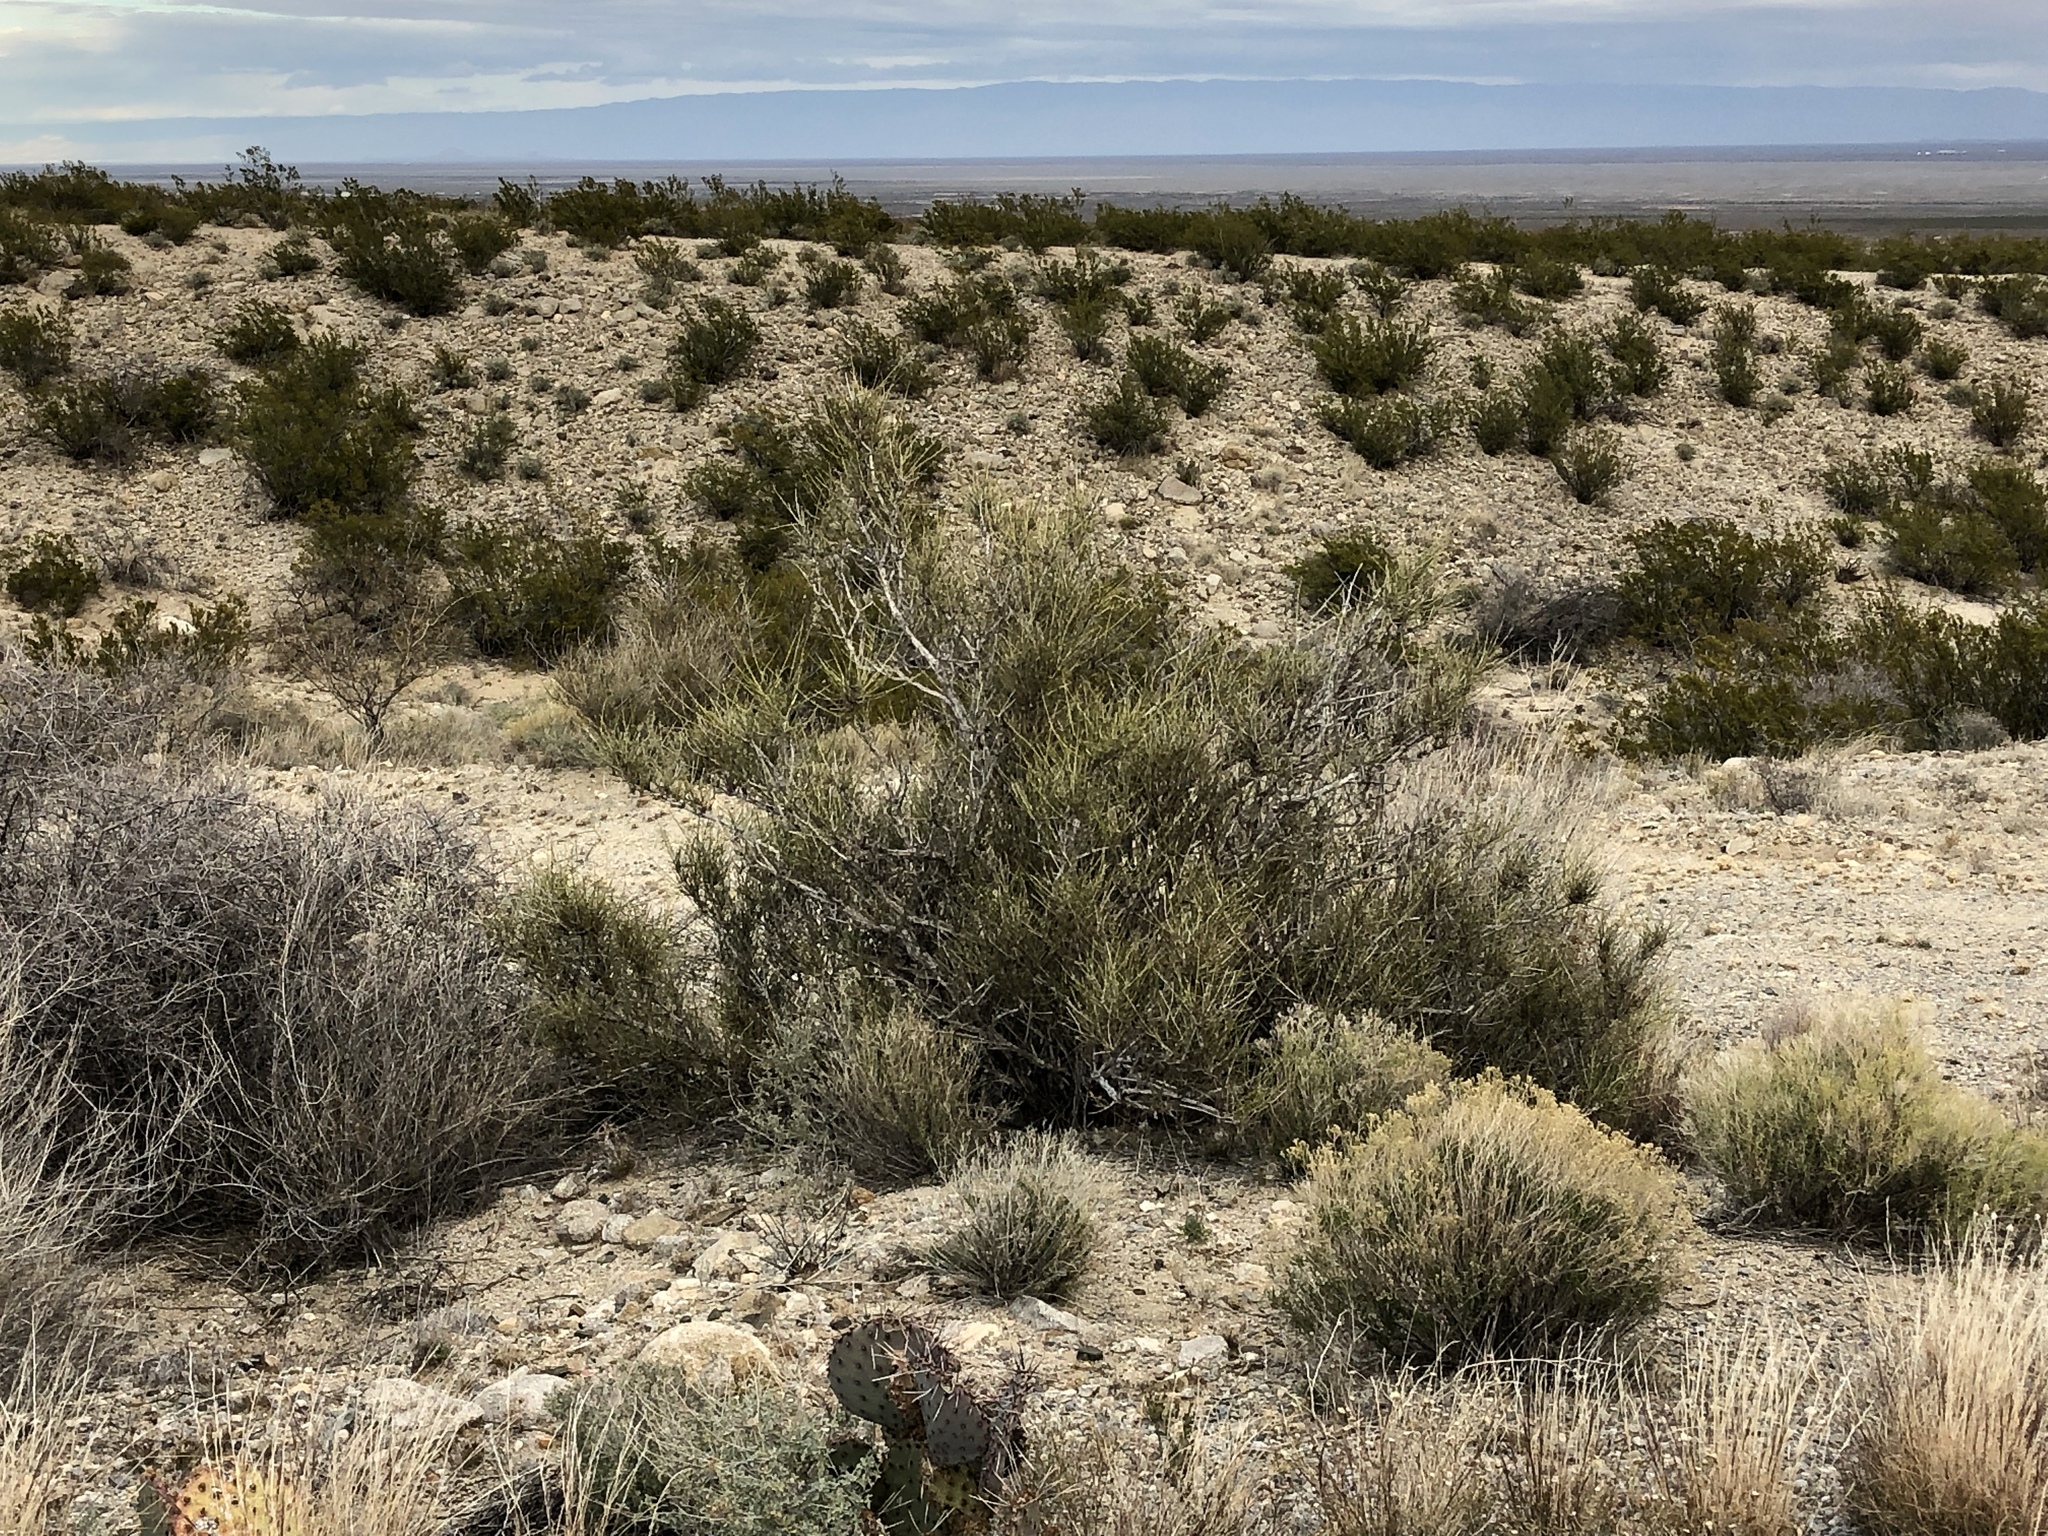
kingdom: Plantae
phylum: Tracheophyta
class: Gnetopsida
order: Ephedrales
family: Ephedraceae
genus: Ephedra
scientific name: Ephedra aspera
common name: Boundary ephedra
